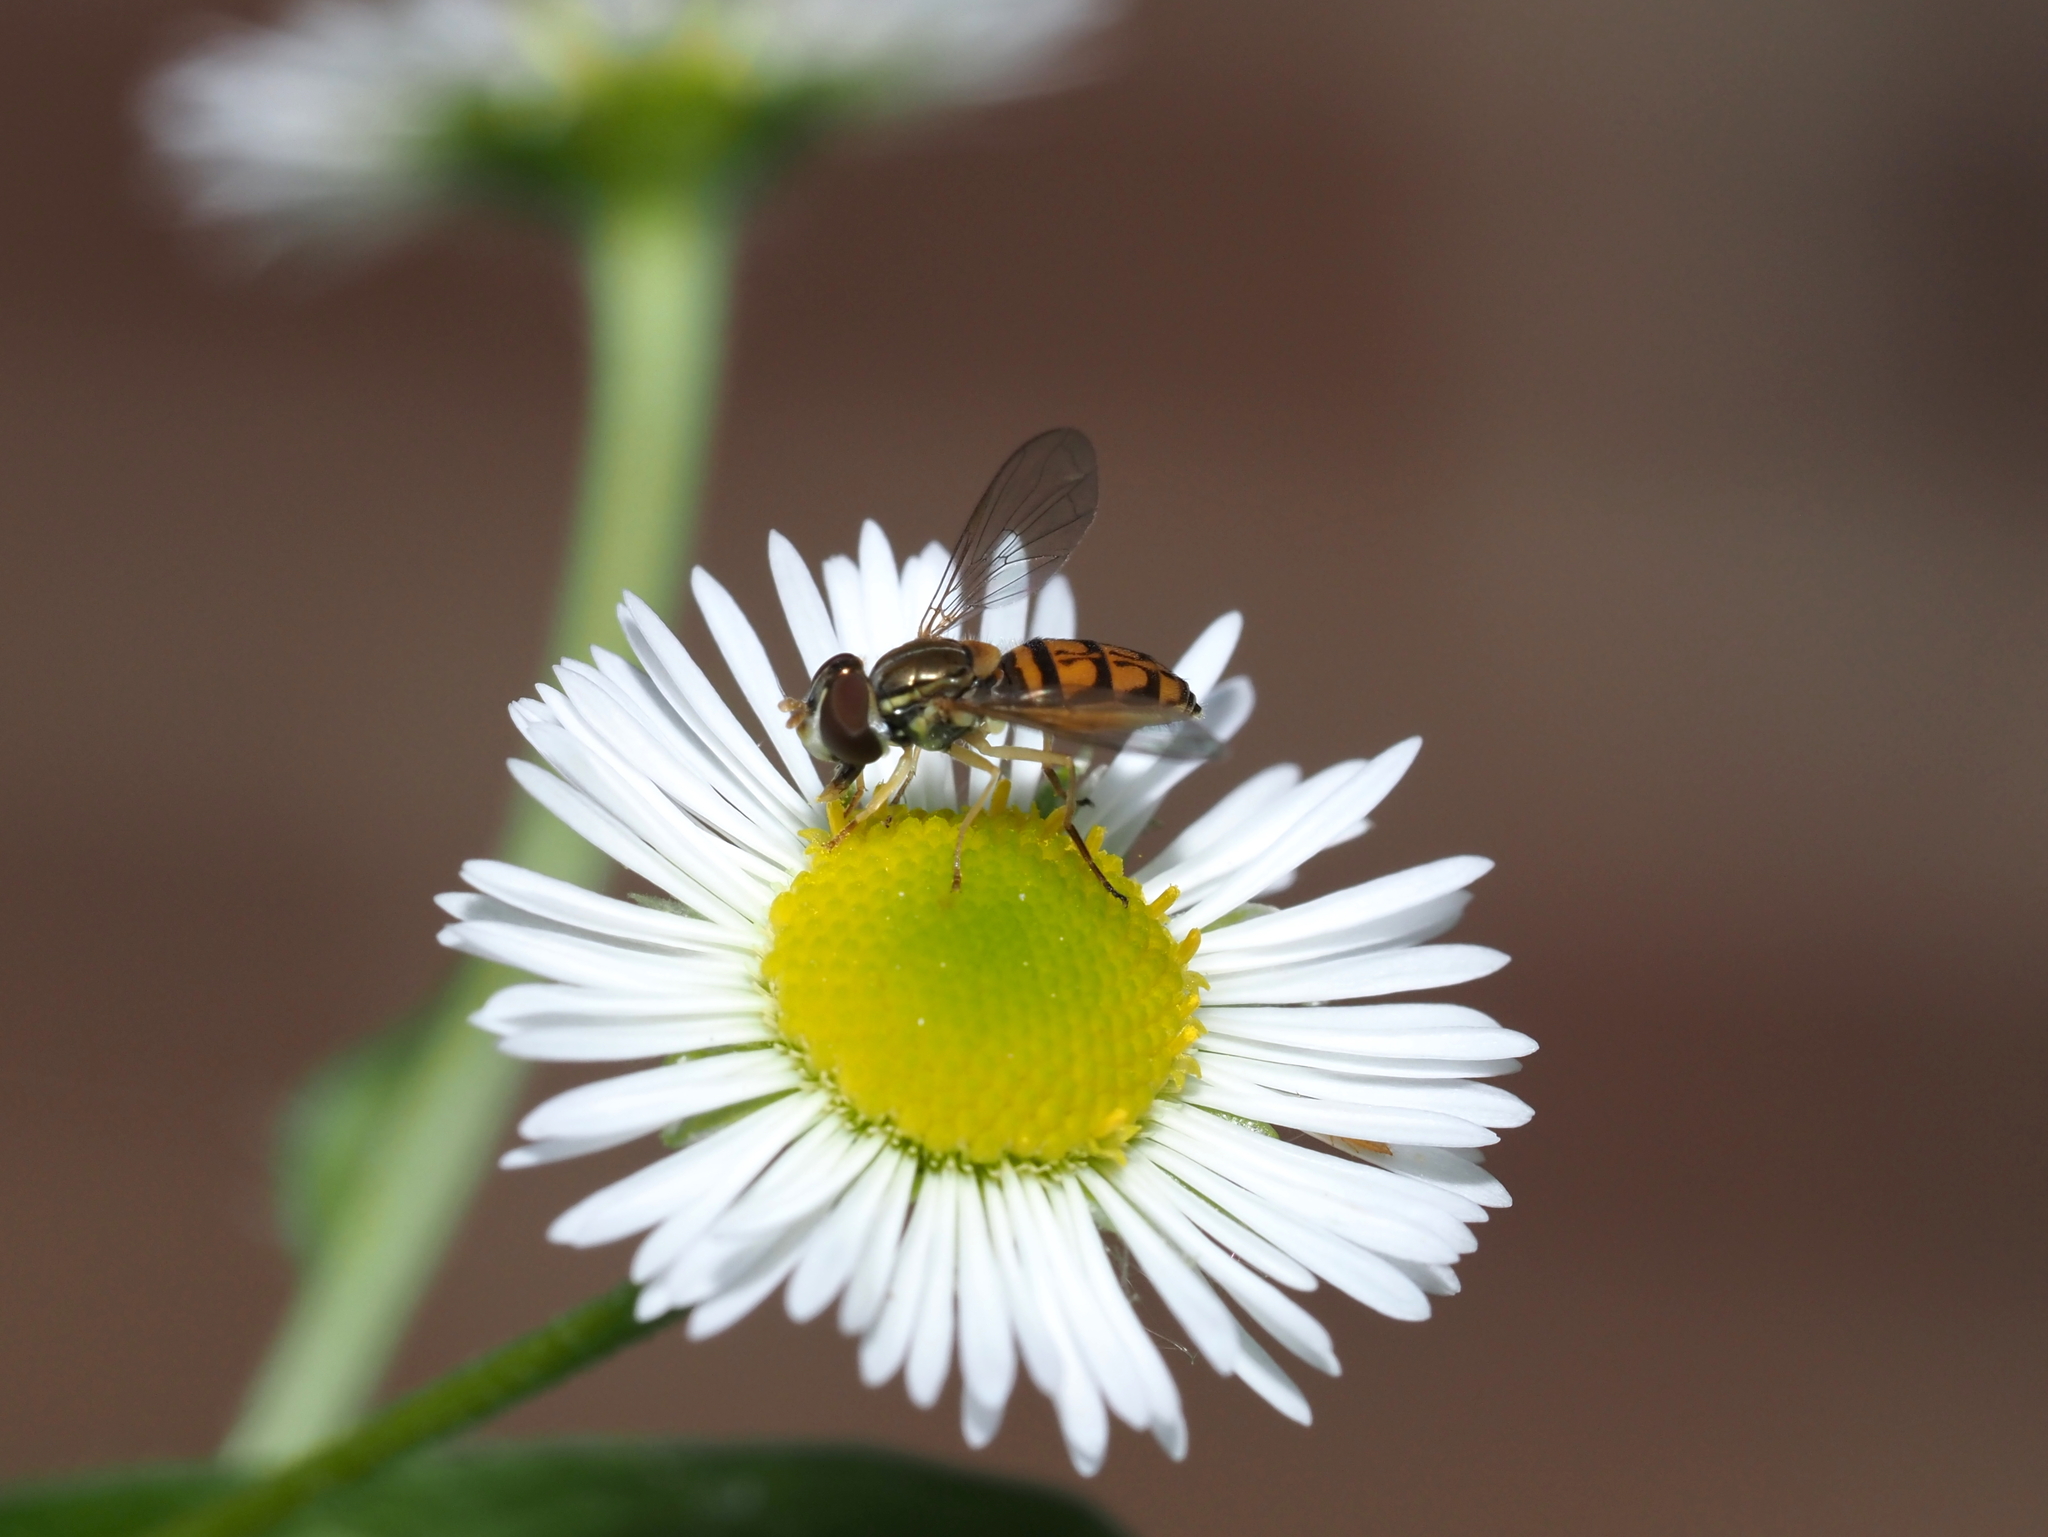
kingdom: Animalia
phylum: Arthropoda
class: Insecta
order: Diptera
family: Syrphidae
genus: Toxomerus
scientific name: Toxomerus marginatus
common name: Syrphid fly
